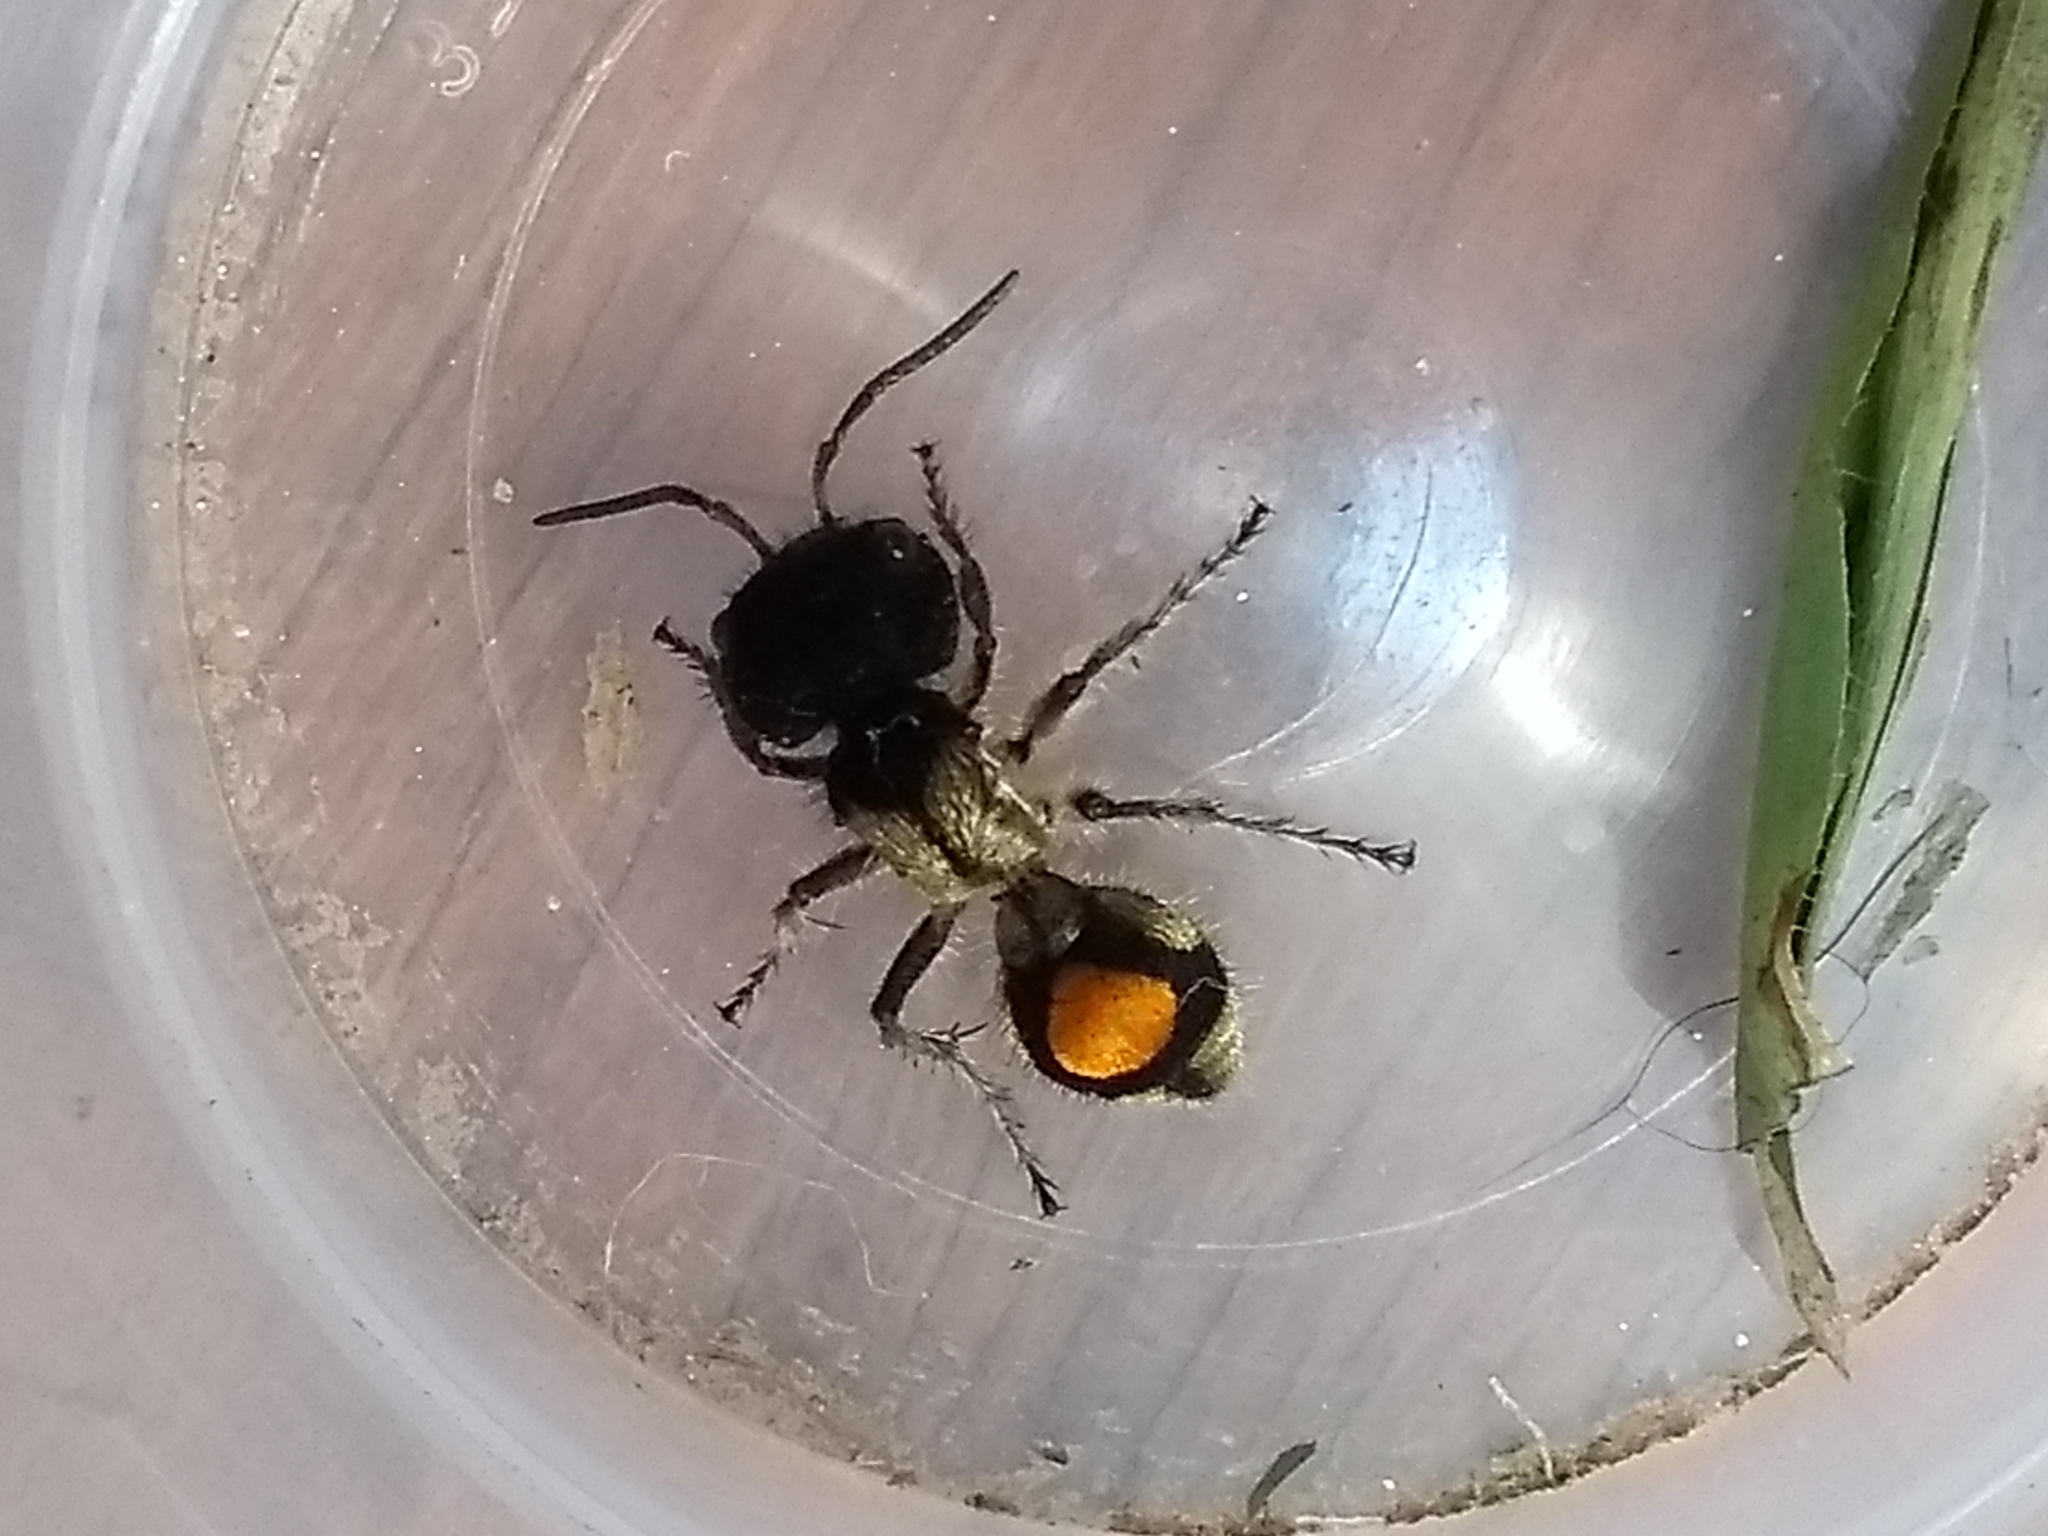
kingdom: Animalia
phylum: Arthropoda
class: Insecta
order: Hymenoptera
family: Mutillidae
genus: Hoplocrates
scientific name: Hoplocrates
